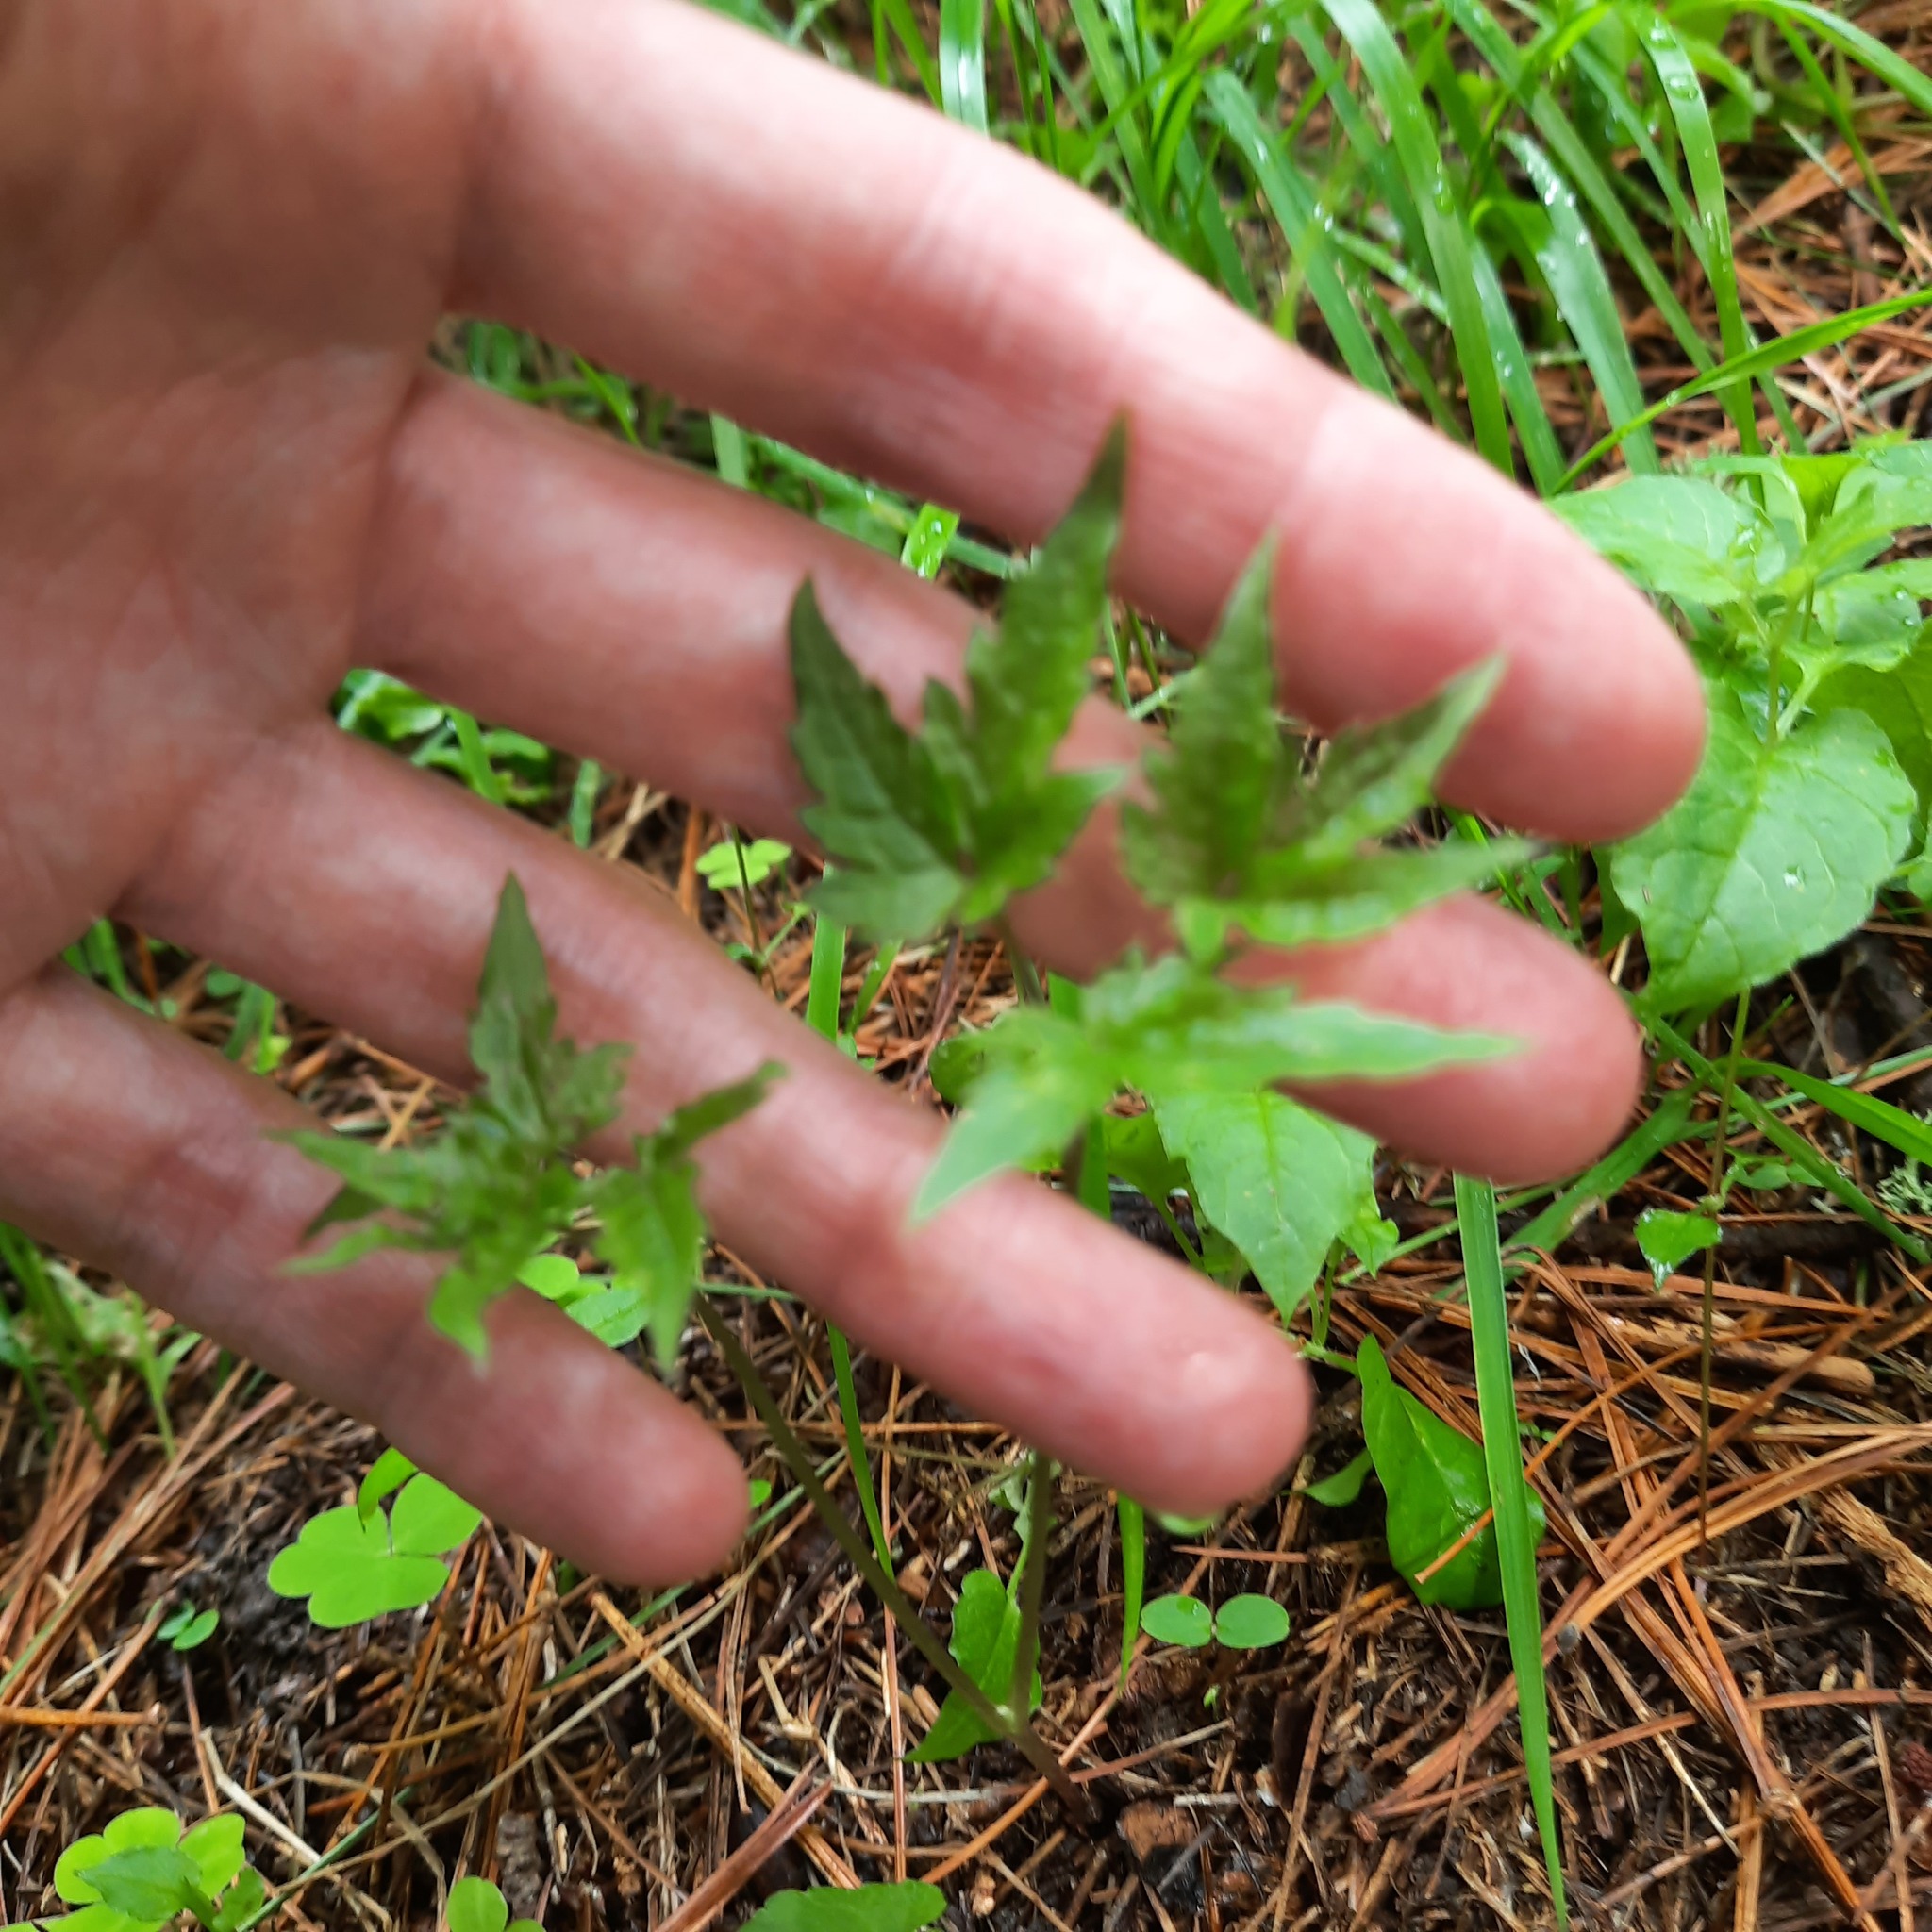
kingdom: Plantae
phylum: Tracheophyta
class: Magnoliopsida
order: Ranunculales
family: Ranunculaceae
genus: Clematis
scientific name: Clematis sibirica
